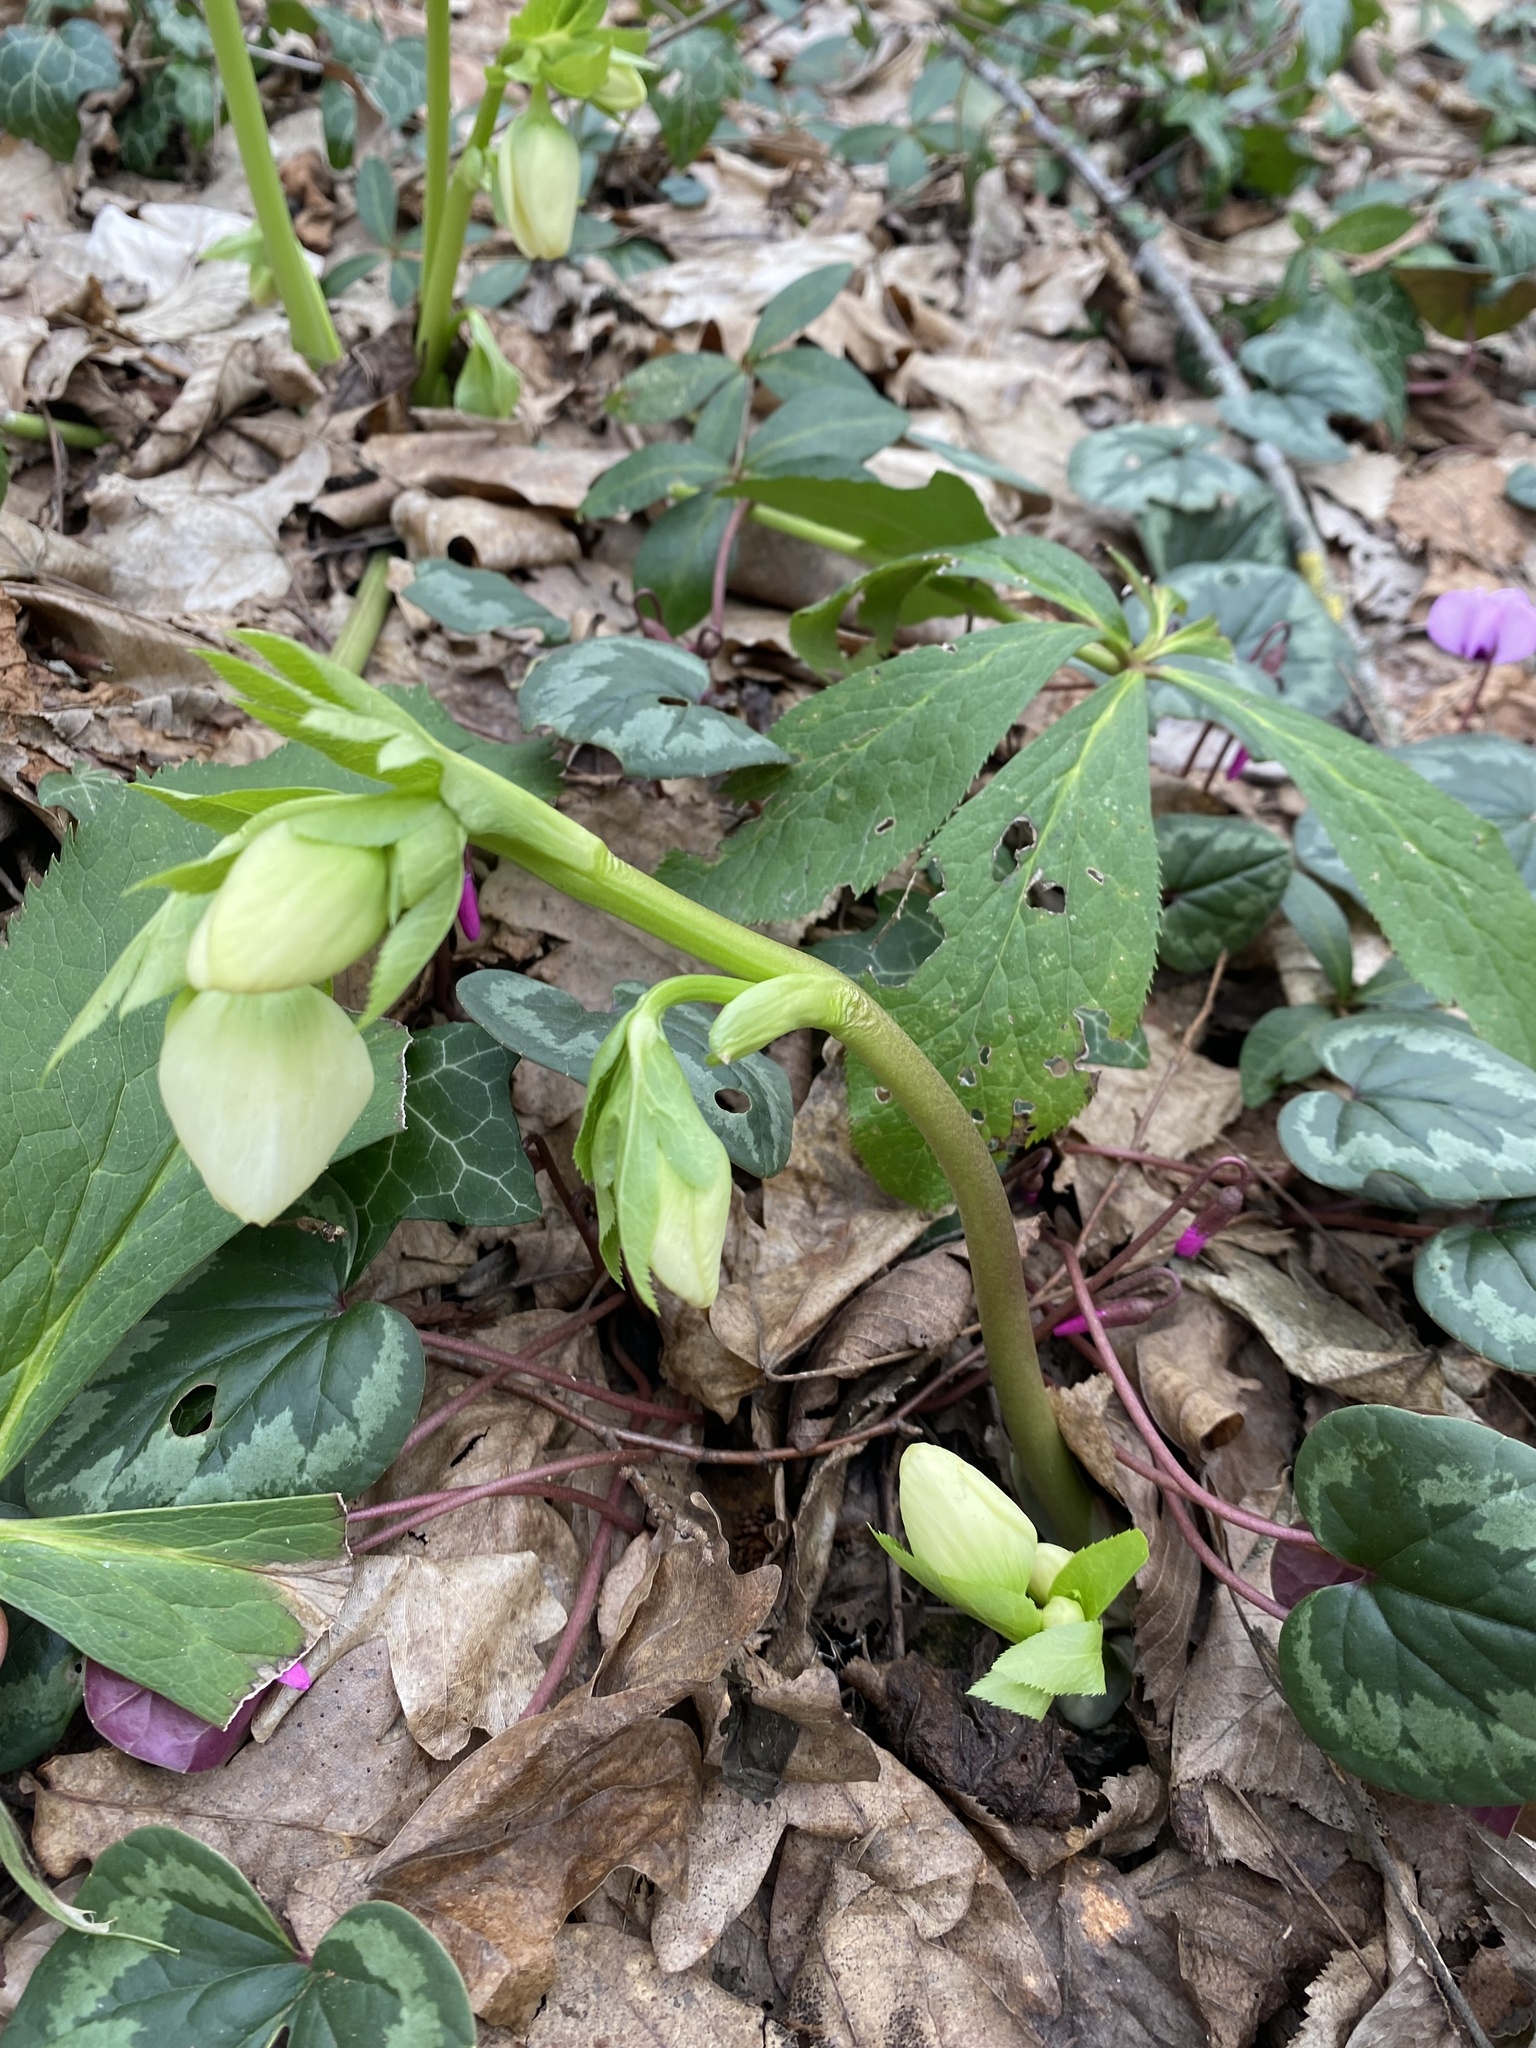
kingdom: Plantae
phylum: Tracheophyta
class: Magnoliopsida
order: Ranunculales
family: Ranunculaceae
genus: Helleborus
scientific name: Helleborus orientalis
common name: Lenten-rose
